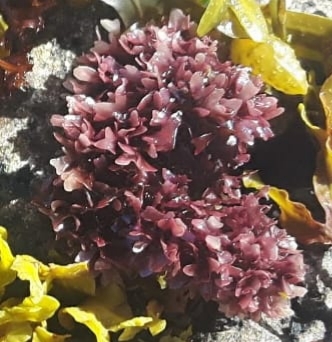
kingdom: Plantae
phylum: Rhodophyta
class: Florideophyceae
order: Gigartinales
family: Gigartinaceae
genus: Chondrus
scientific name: Chondrus crispus
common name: Carrageen
